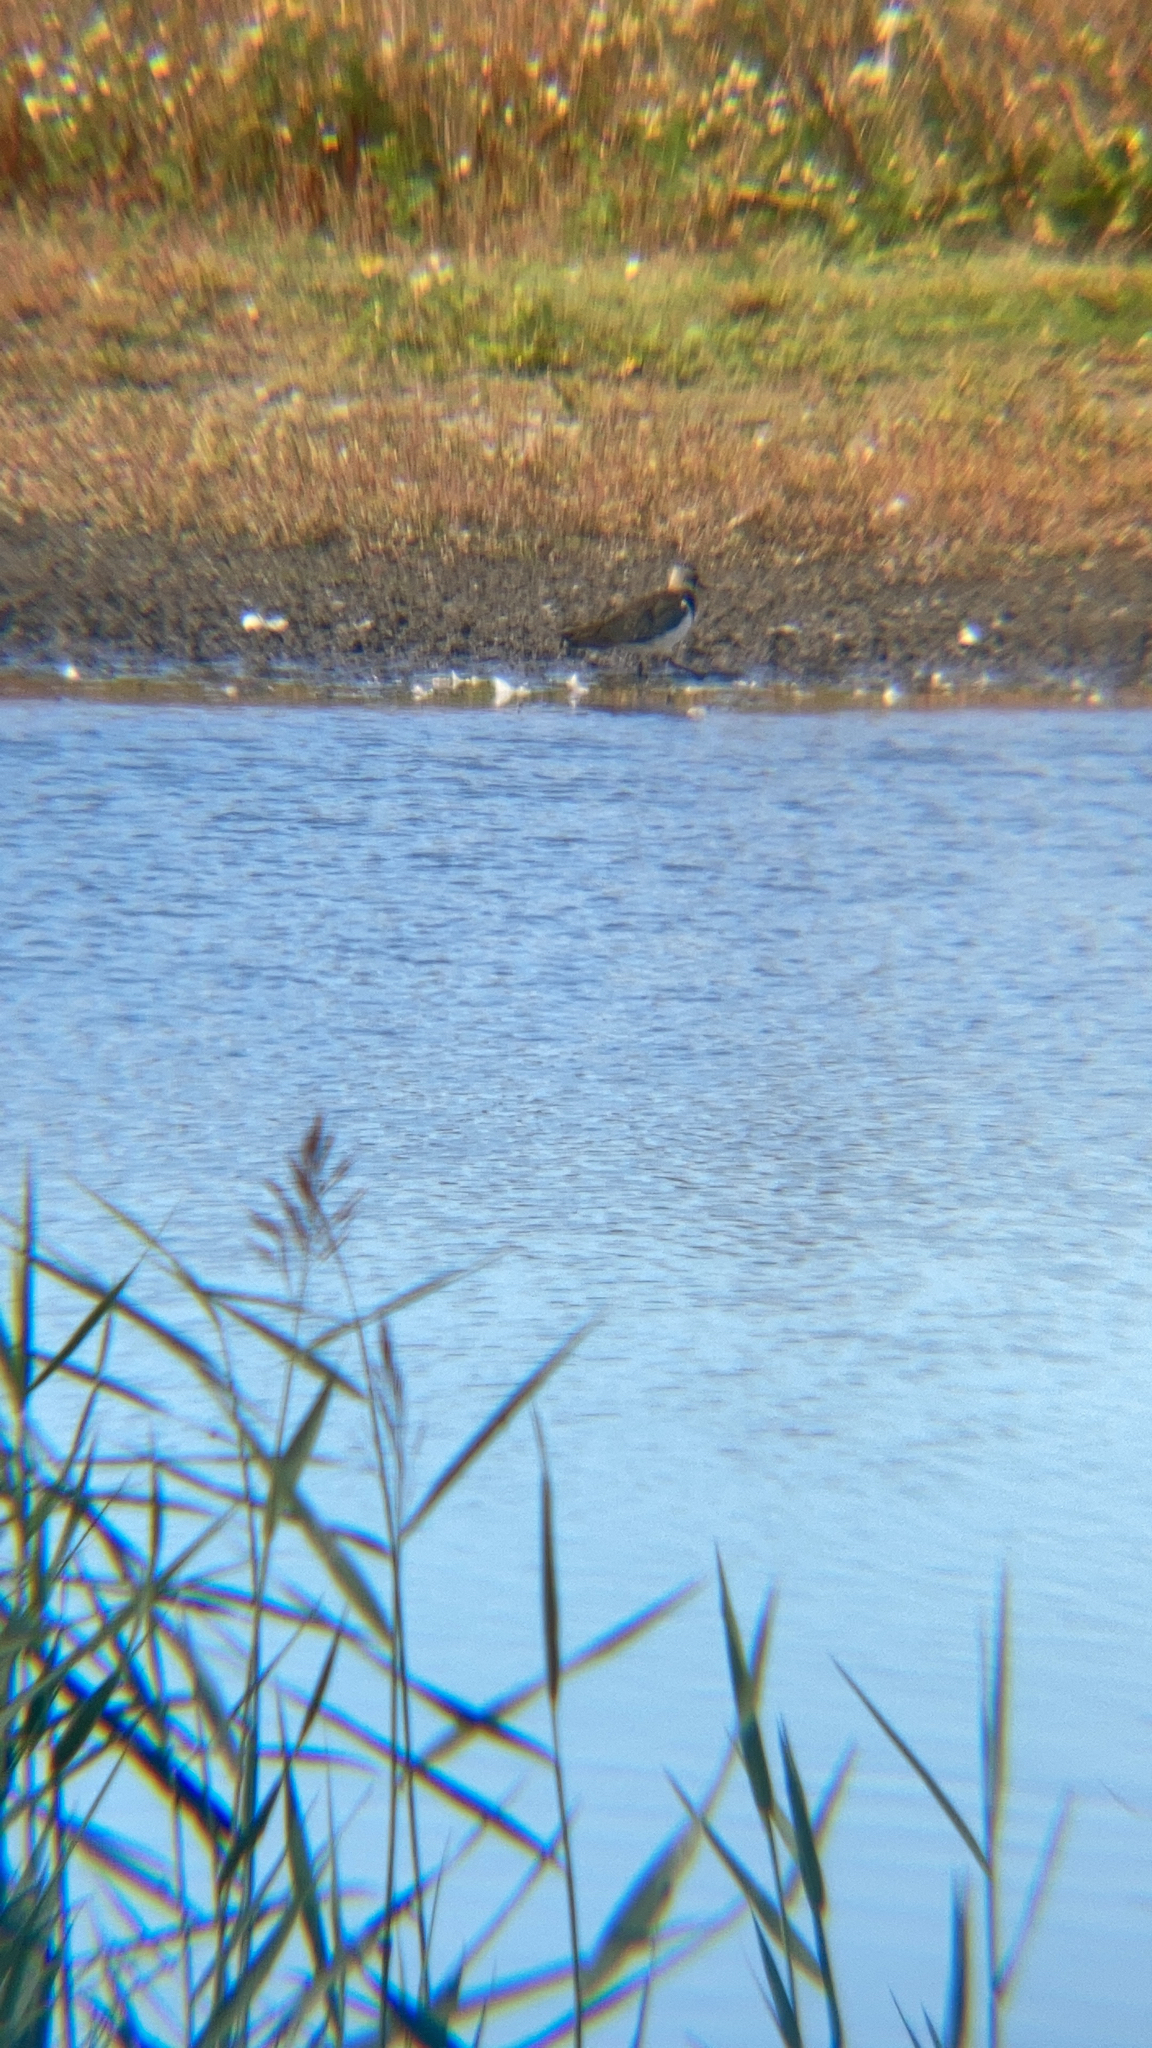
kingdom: Animalia
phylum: Chordata
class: Aves
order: Charadriiformes
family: Charadriidae
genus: Vanellus
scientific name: Vanellus vanellus
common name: Northern lapwing
